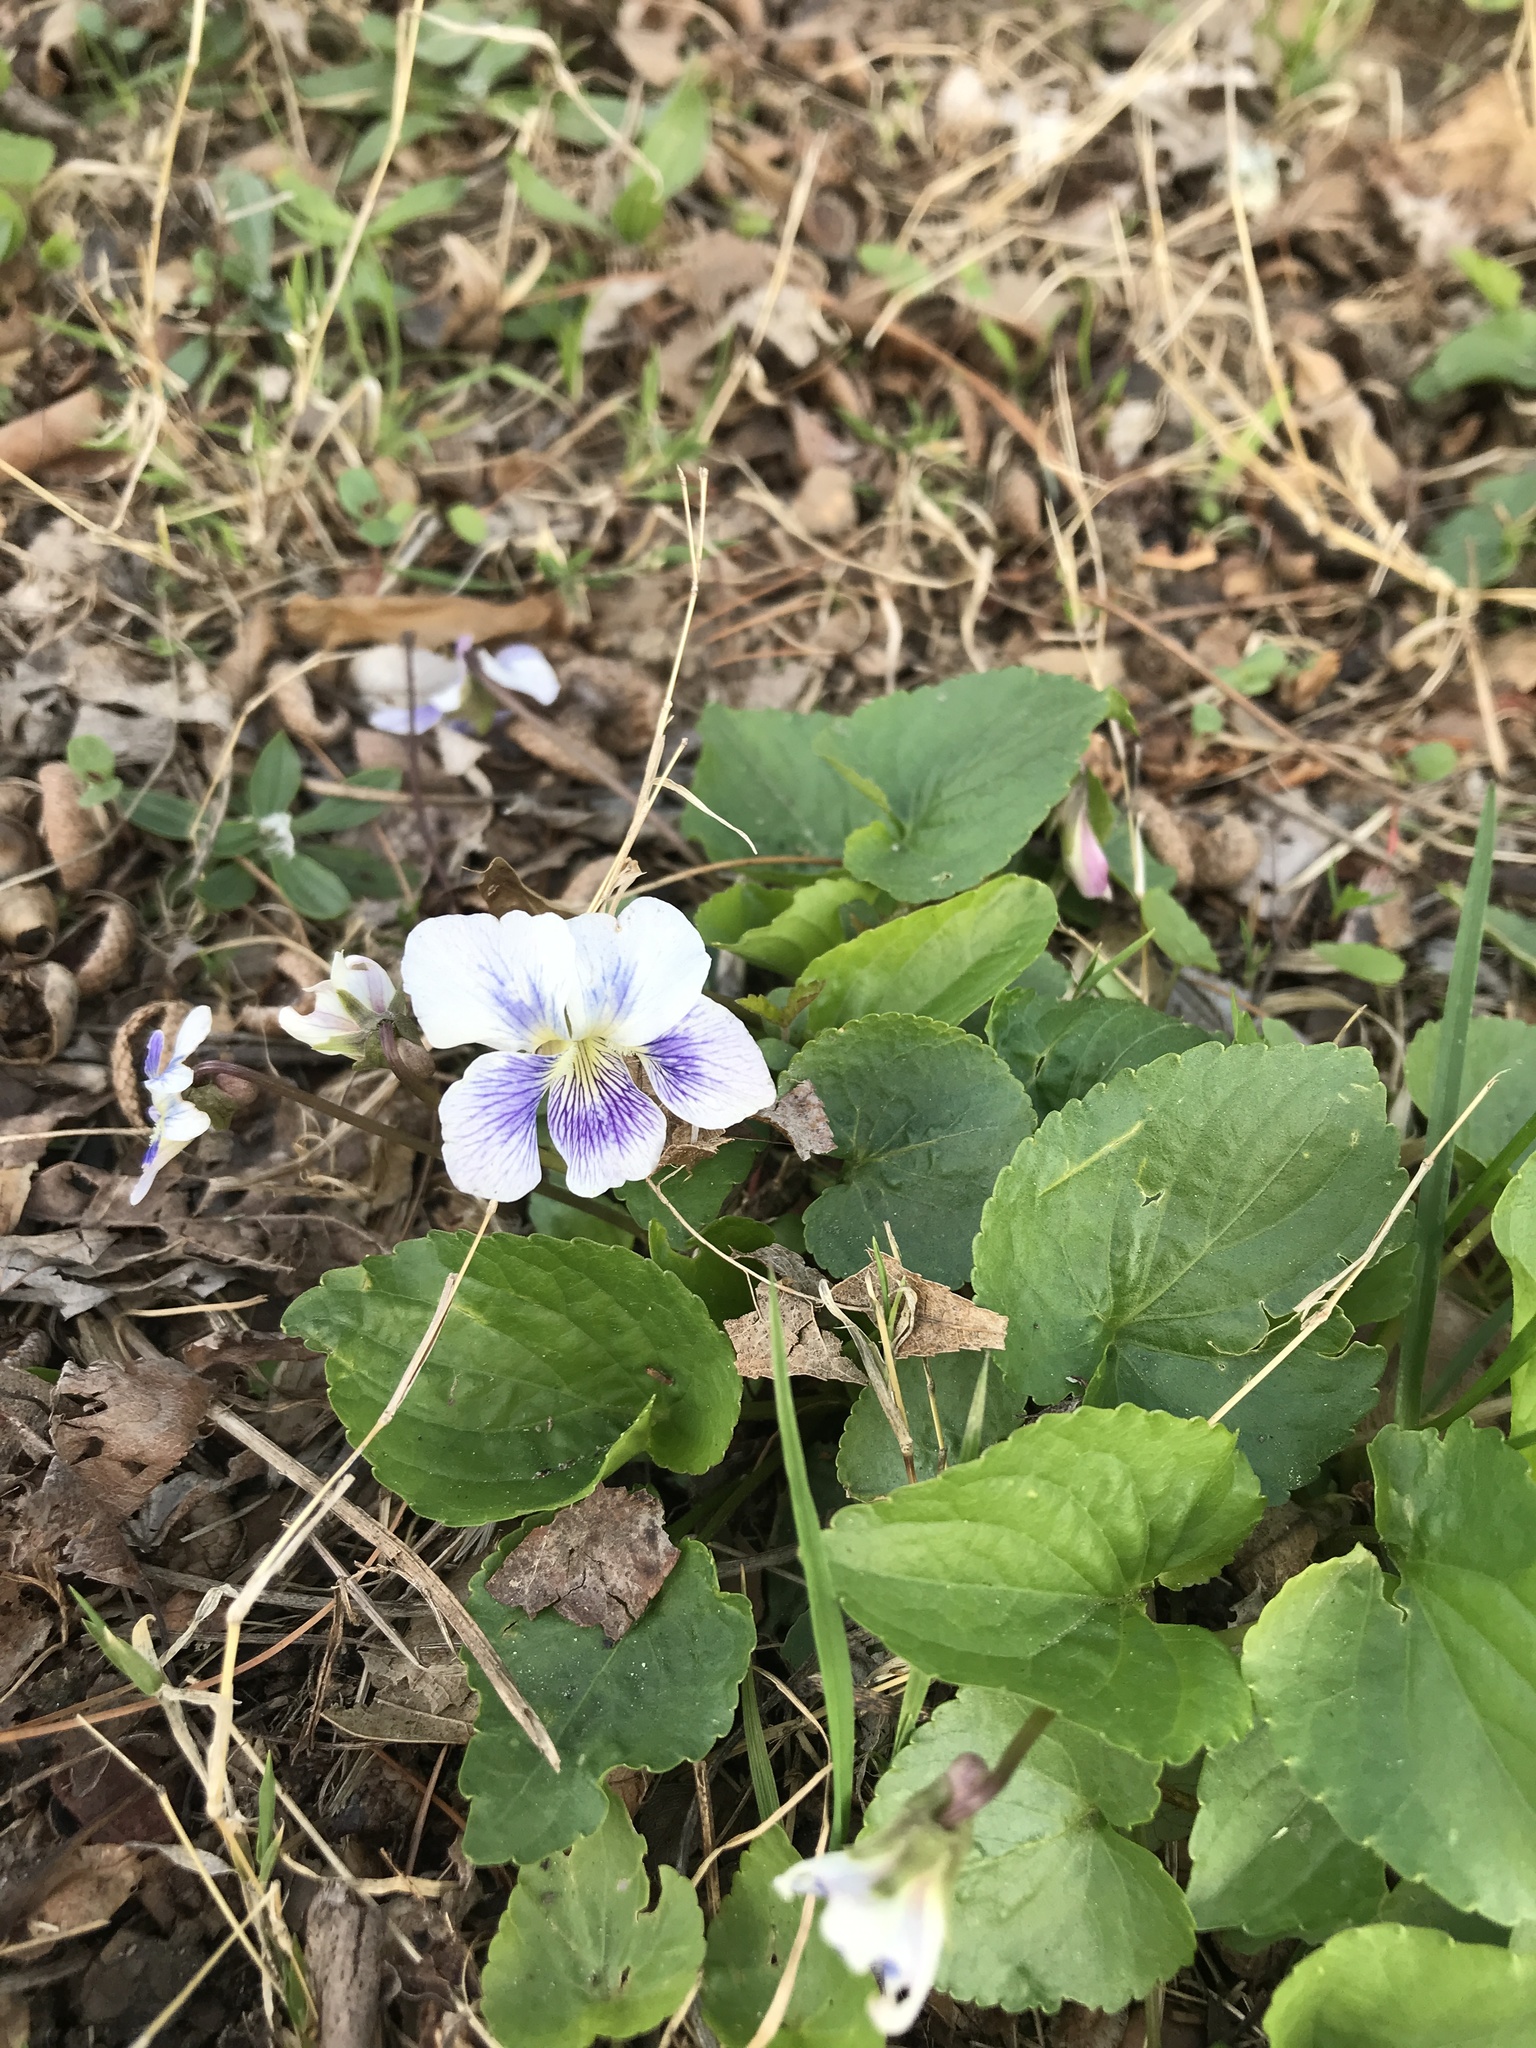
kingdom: Plantae
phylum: Tracheophyta
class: Magnoliopsida
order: Malpighiales
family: Violaceae
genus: Viola
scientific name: Viola sororia
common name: Dooryard violet
